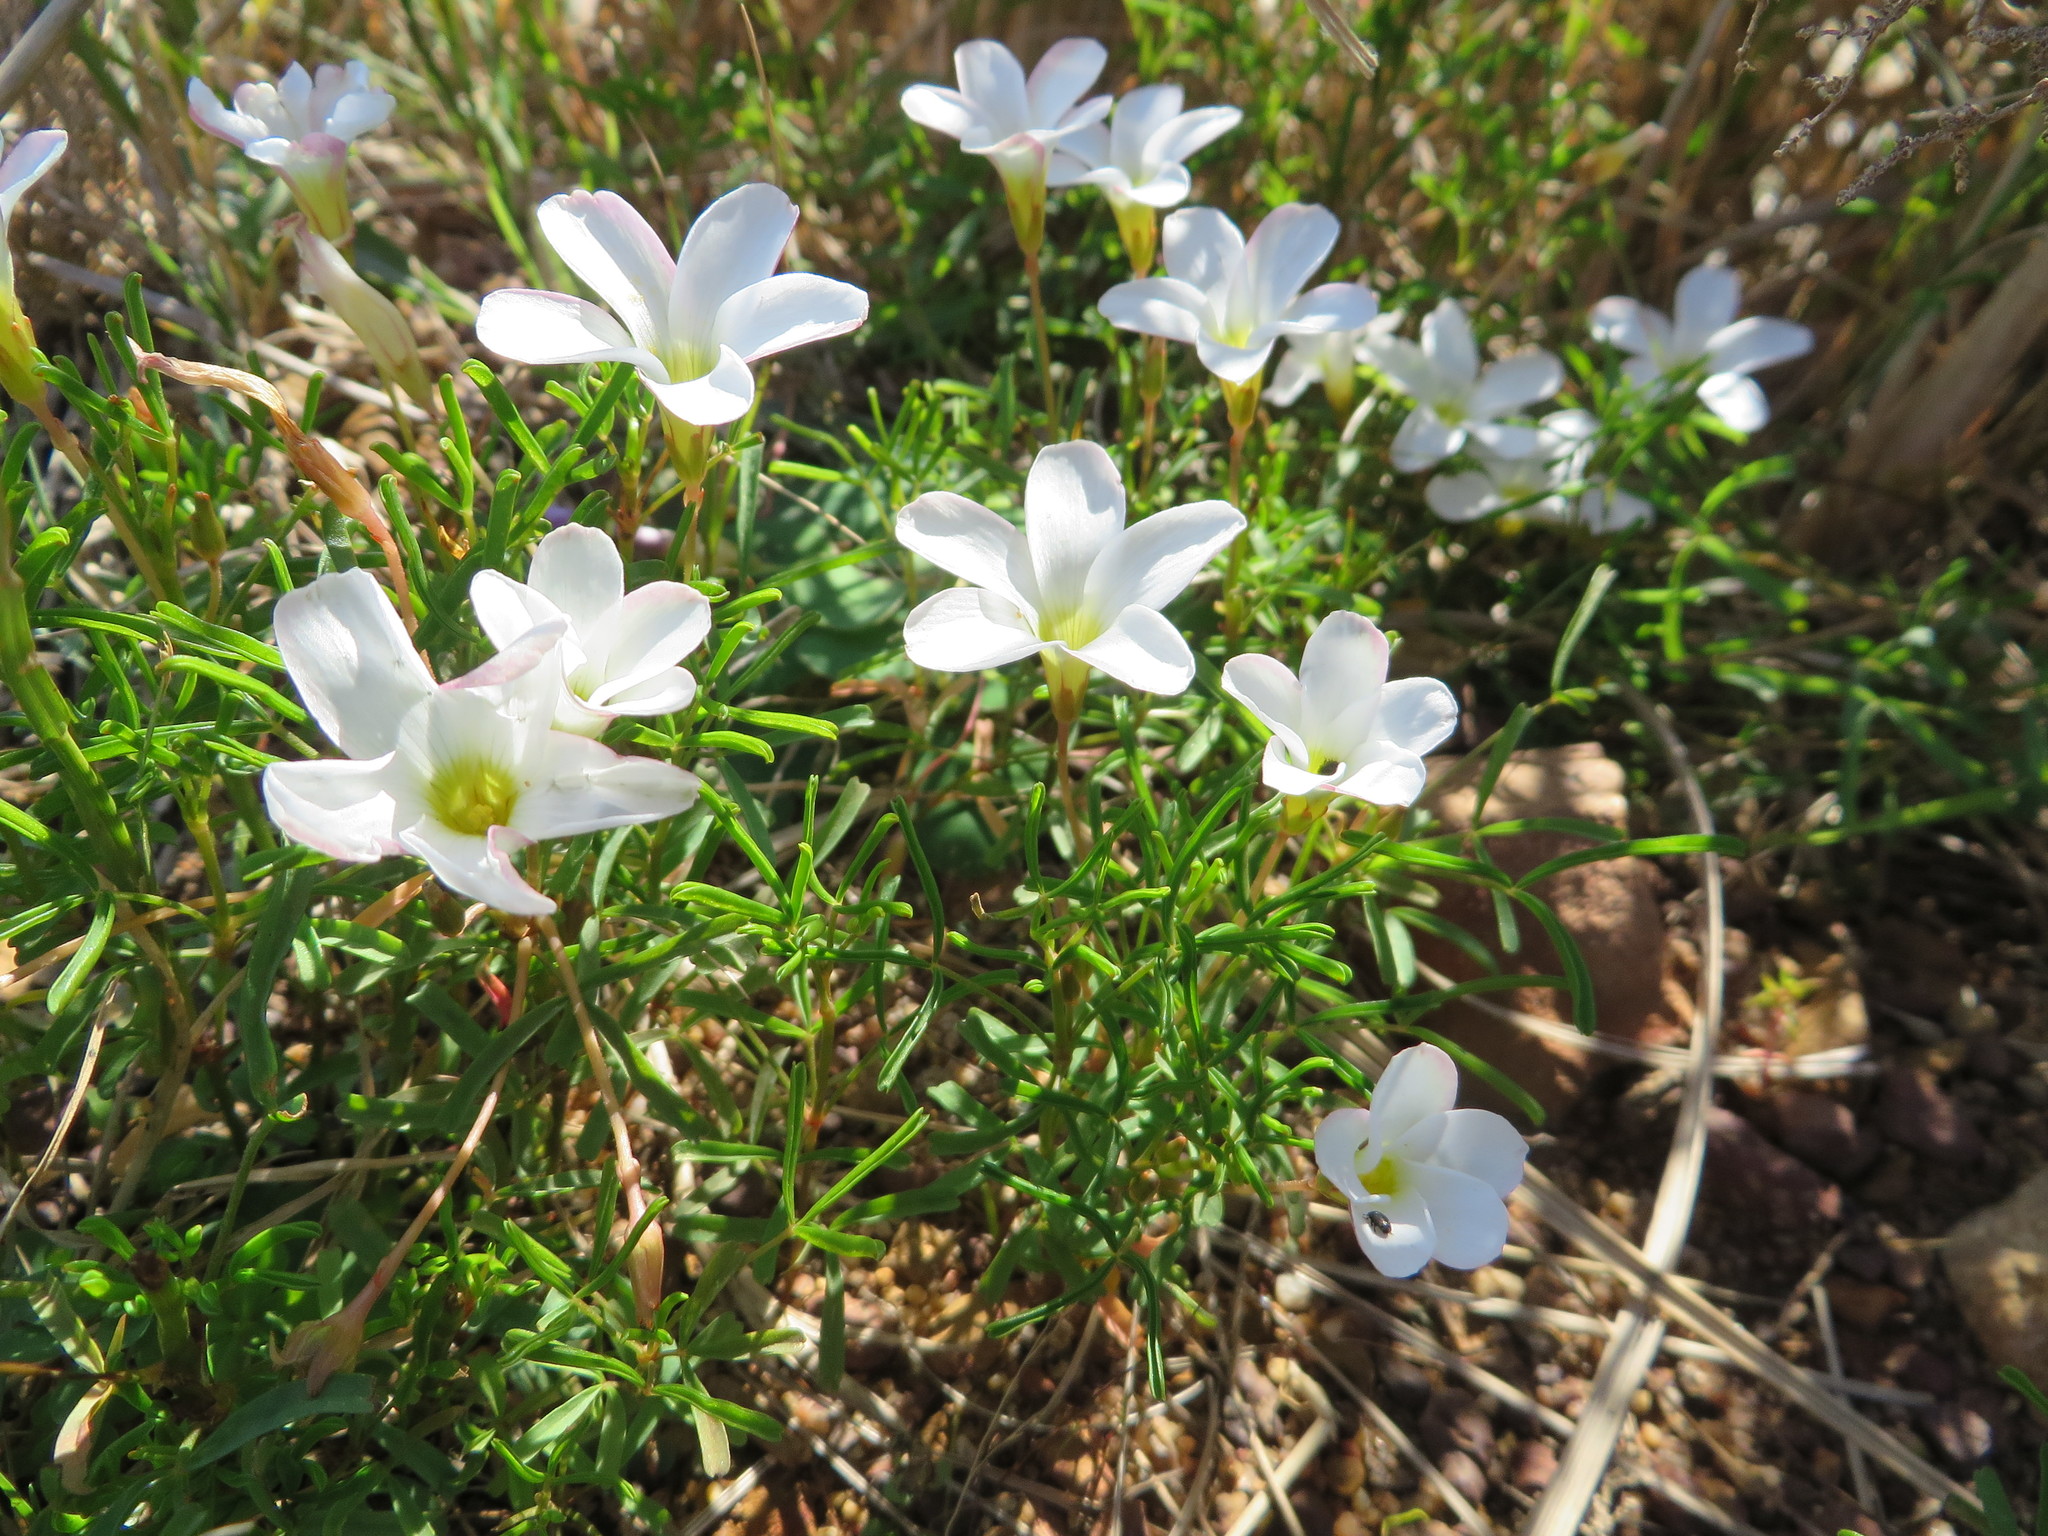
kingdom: Plantae
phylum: Tracheophyta
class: Magnoliopsida
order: Oxalidales
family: Oxalidaceae
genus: Oxalis
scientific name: Oxalis versicolor
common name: Peppermint rock oxalis
